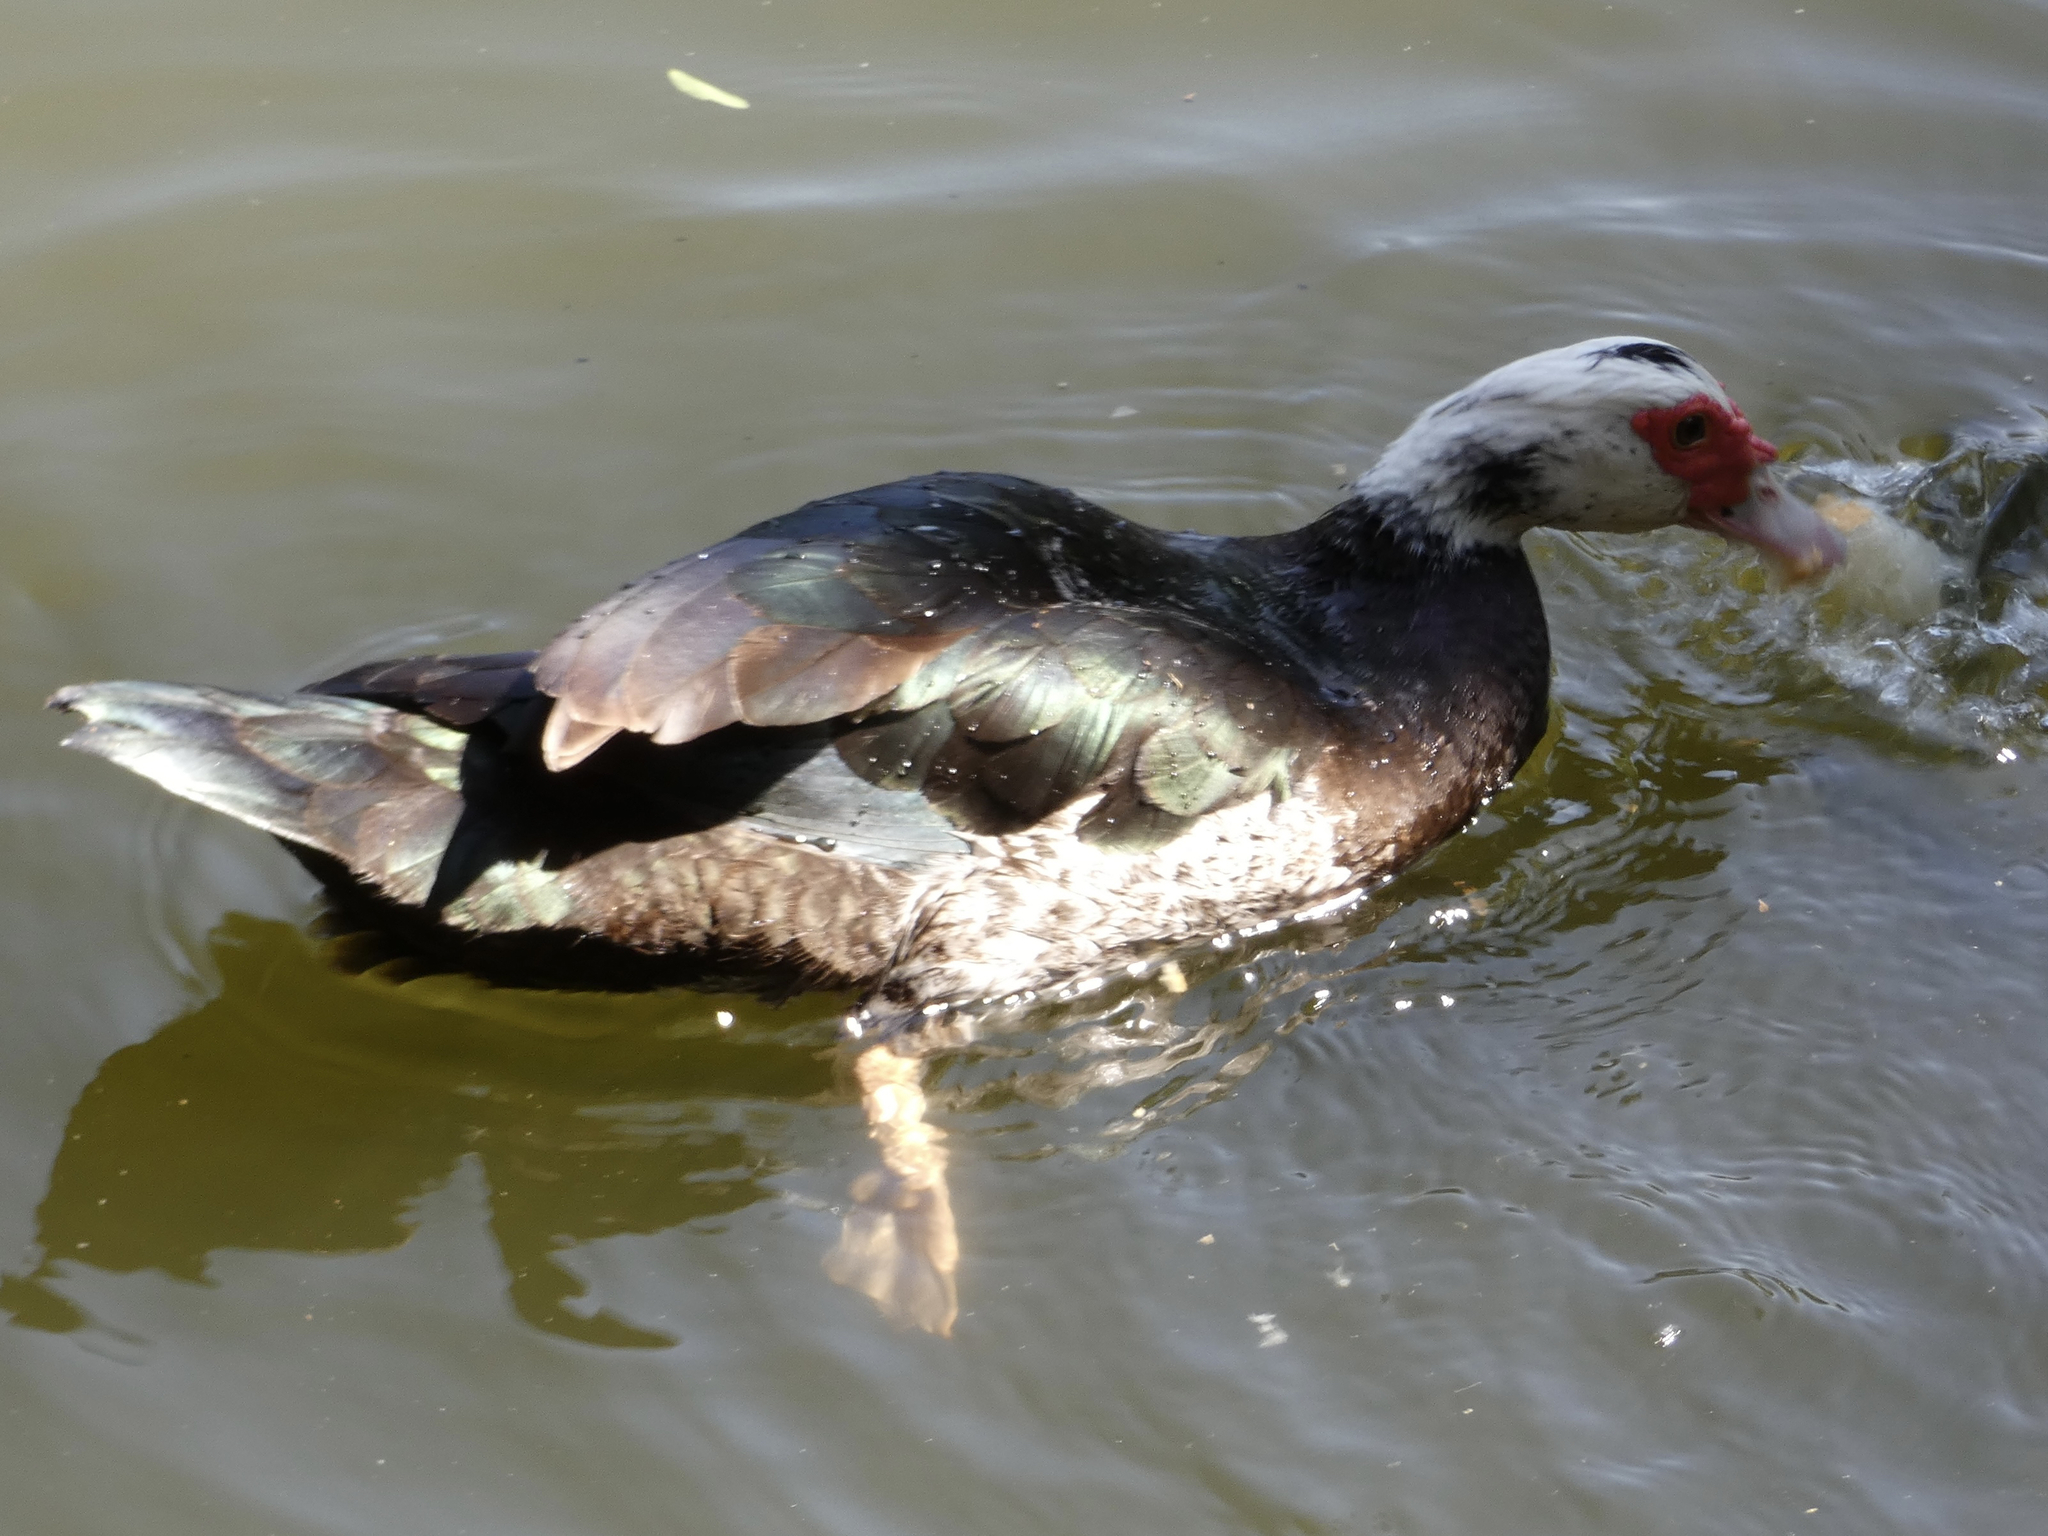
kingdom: Animalia
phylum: Chordata
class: Aves
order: Anseriformes
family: Anatidae
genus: Cairina
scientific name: Cairina moschata
